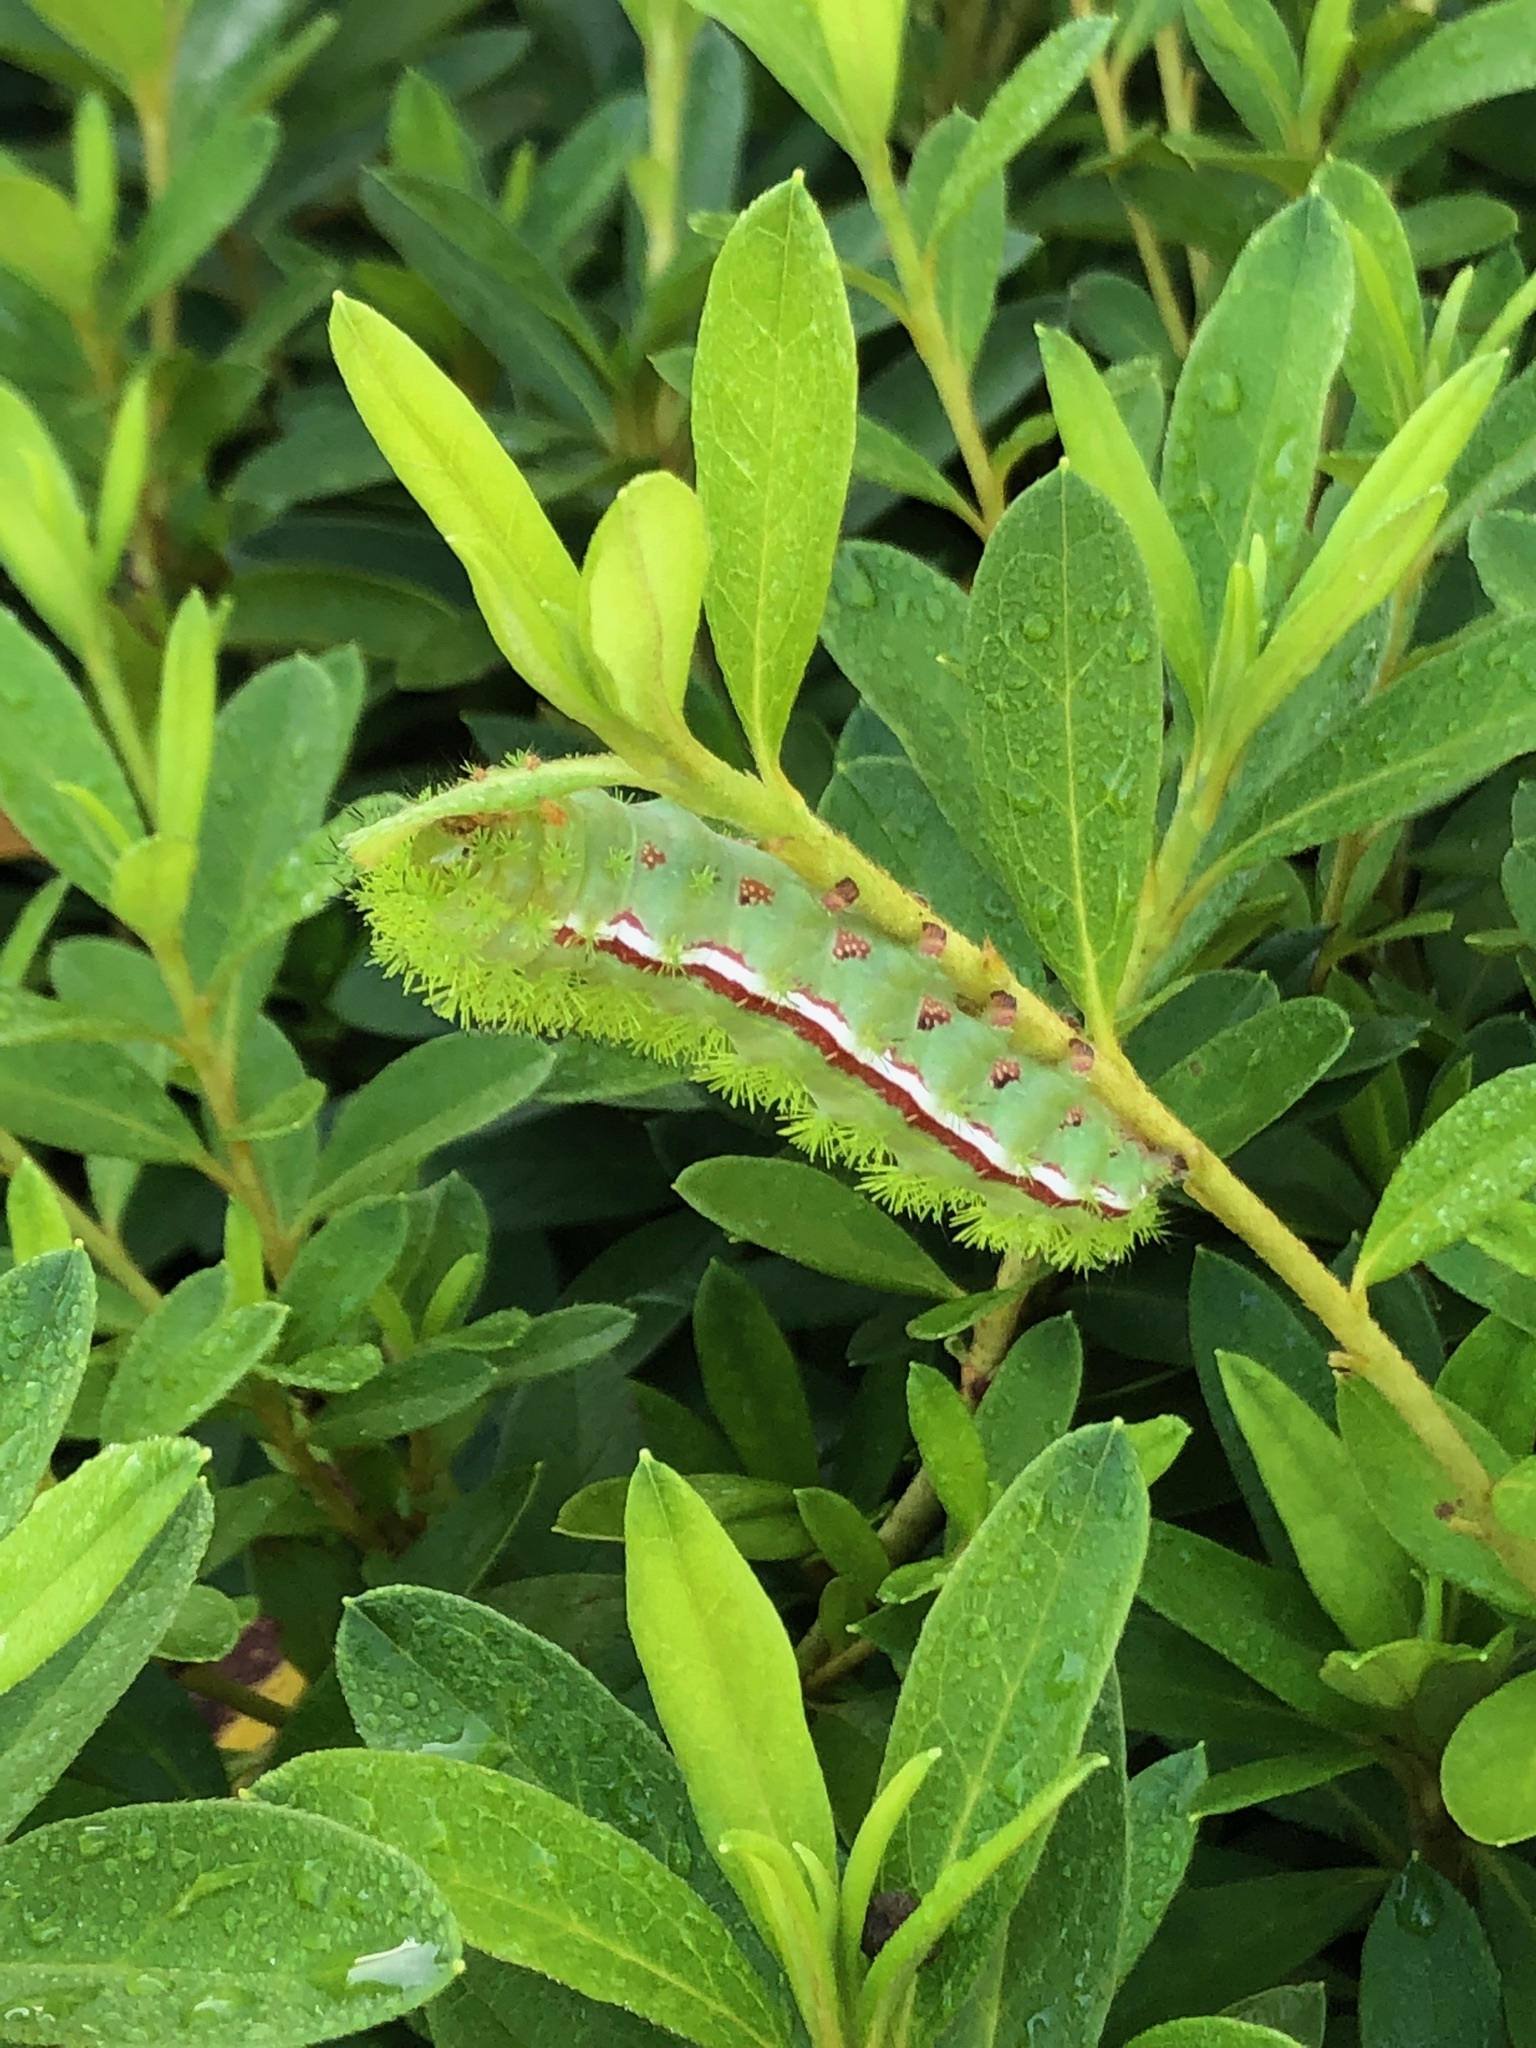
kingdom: Animalia
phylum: Arthropoda
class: Insecta
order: Lepidoptera
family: Saturniidae
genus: Automeris
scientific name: Automeris io
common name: Io moth
